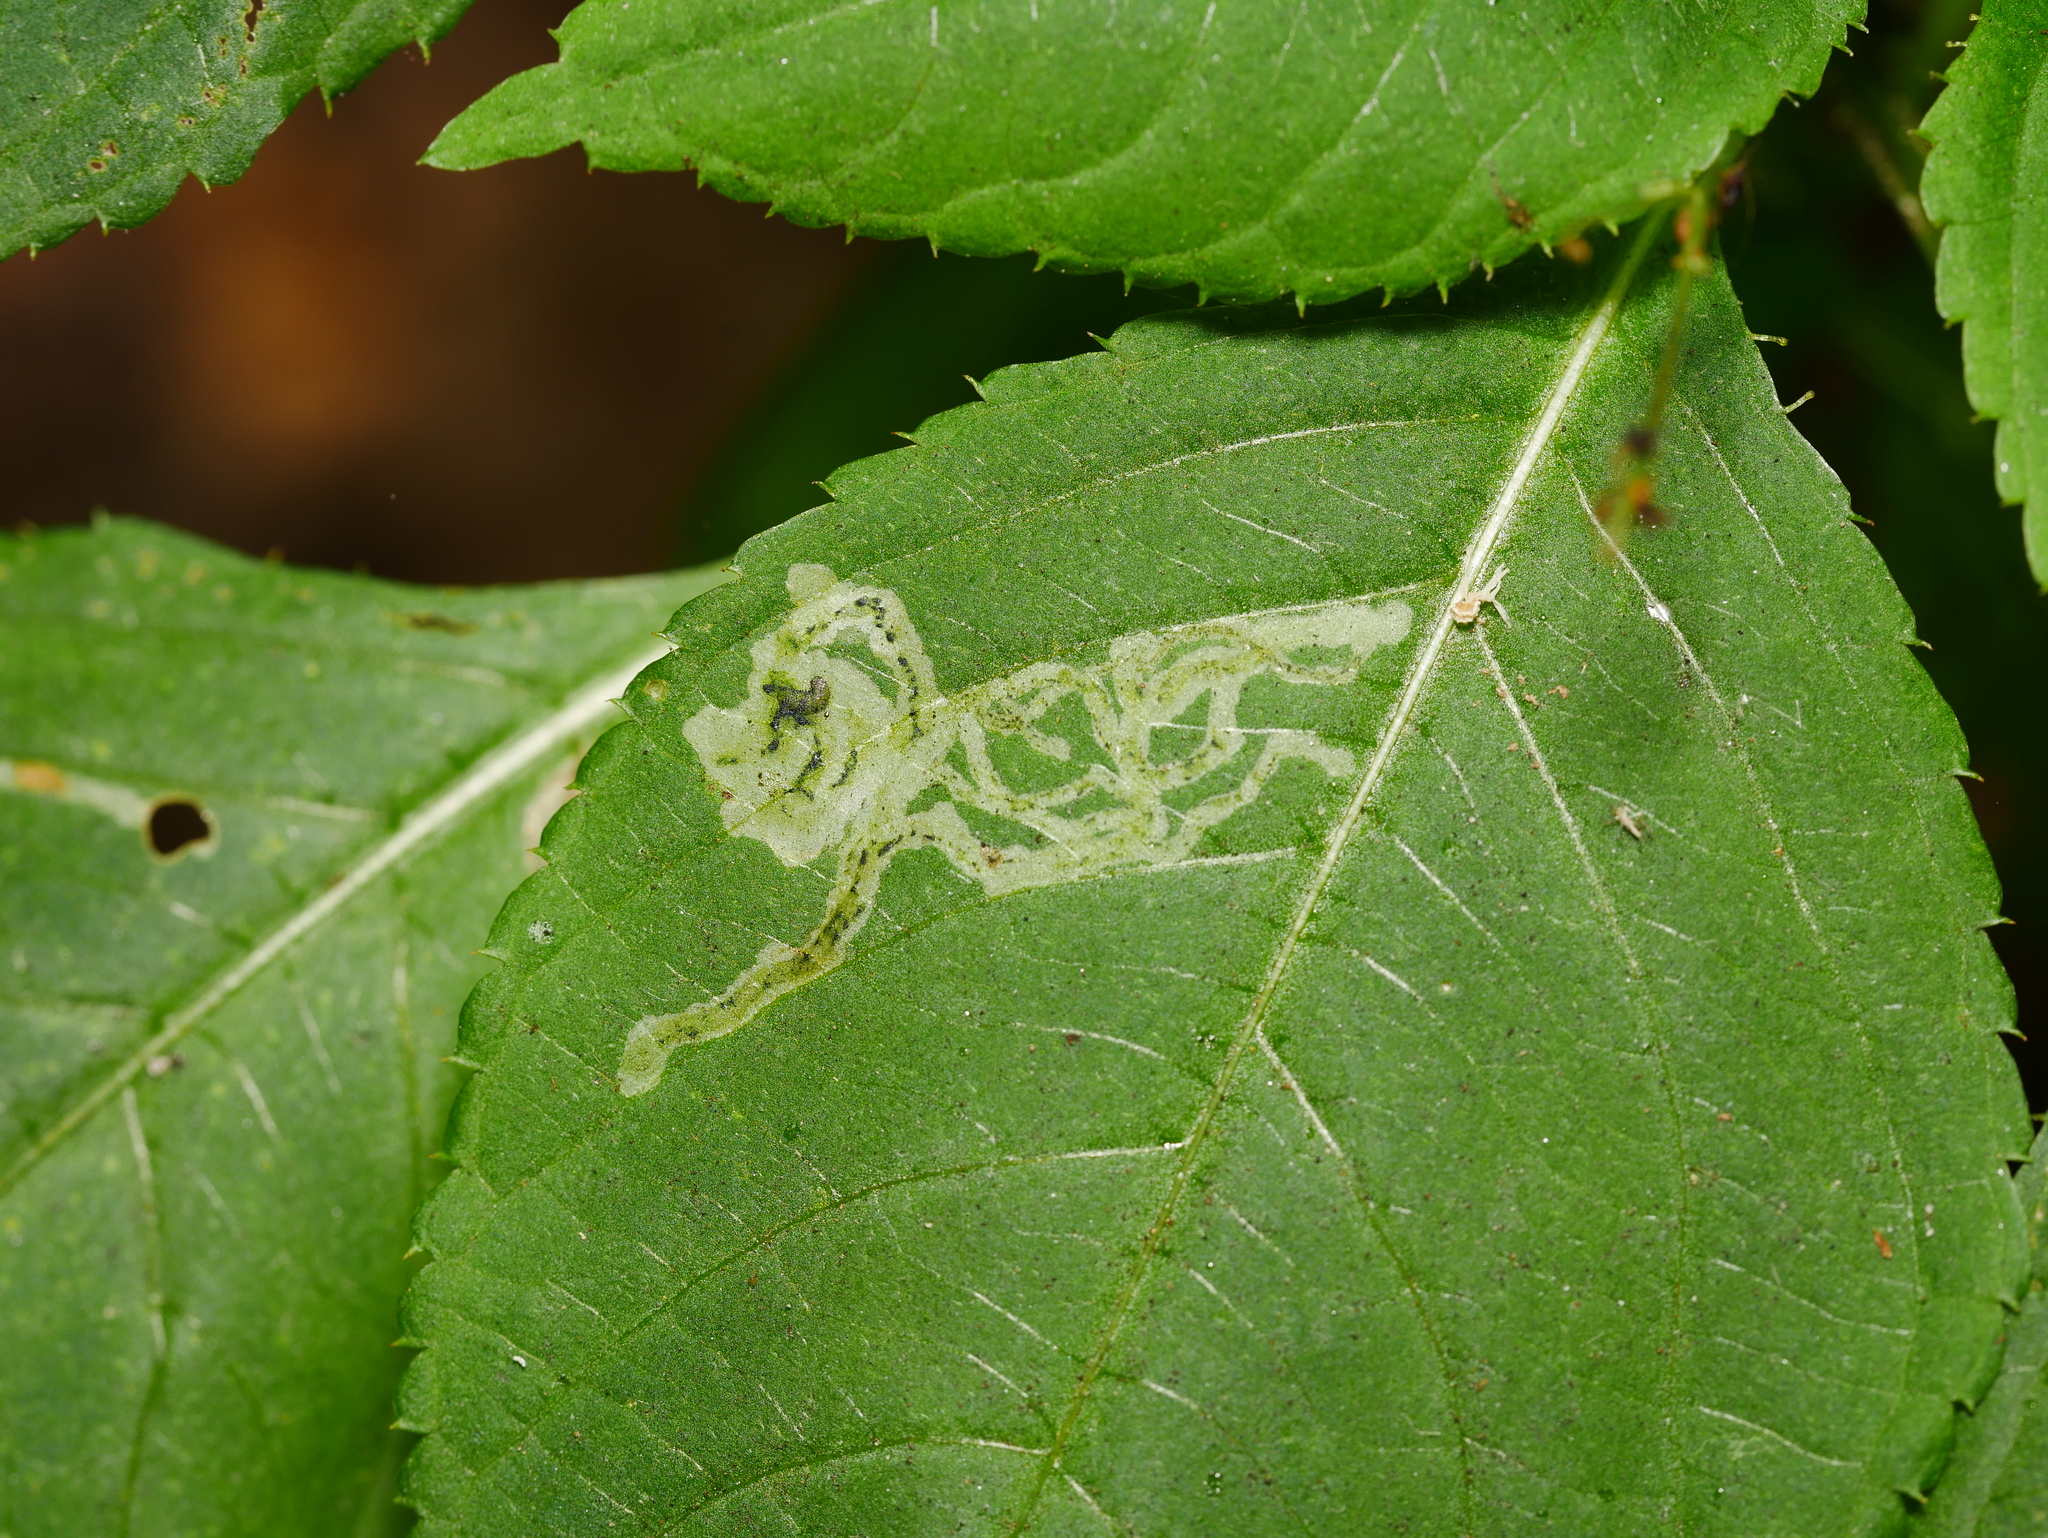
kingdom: Animalia
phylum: Arthropoda
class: Insecta
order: Diptera
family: Agromyzidae
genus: Phytoliriomyza
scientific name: Phytoliriomyza melampyga
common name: Jewelweed leaf-miner fly
